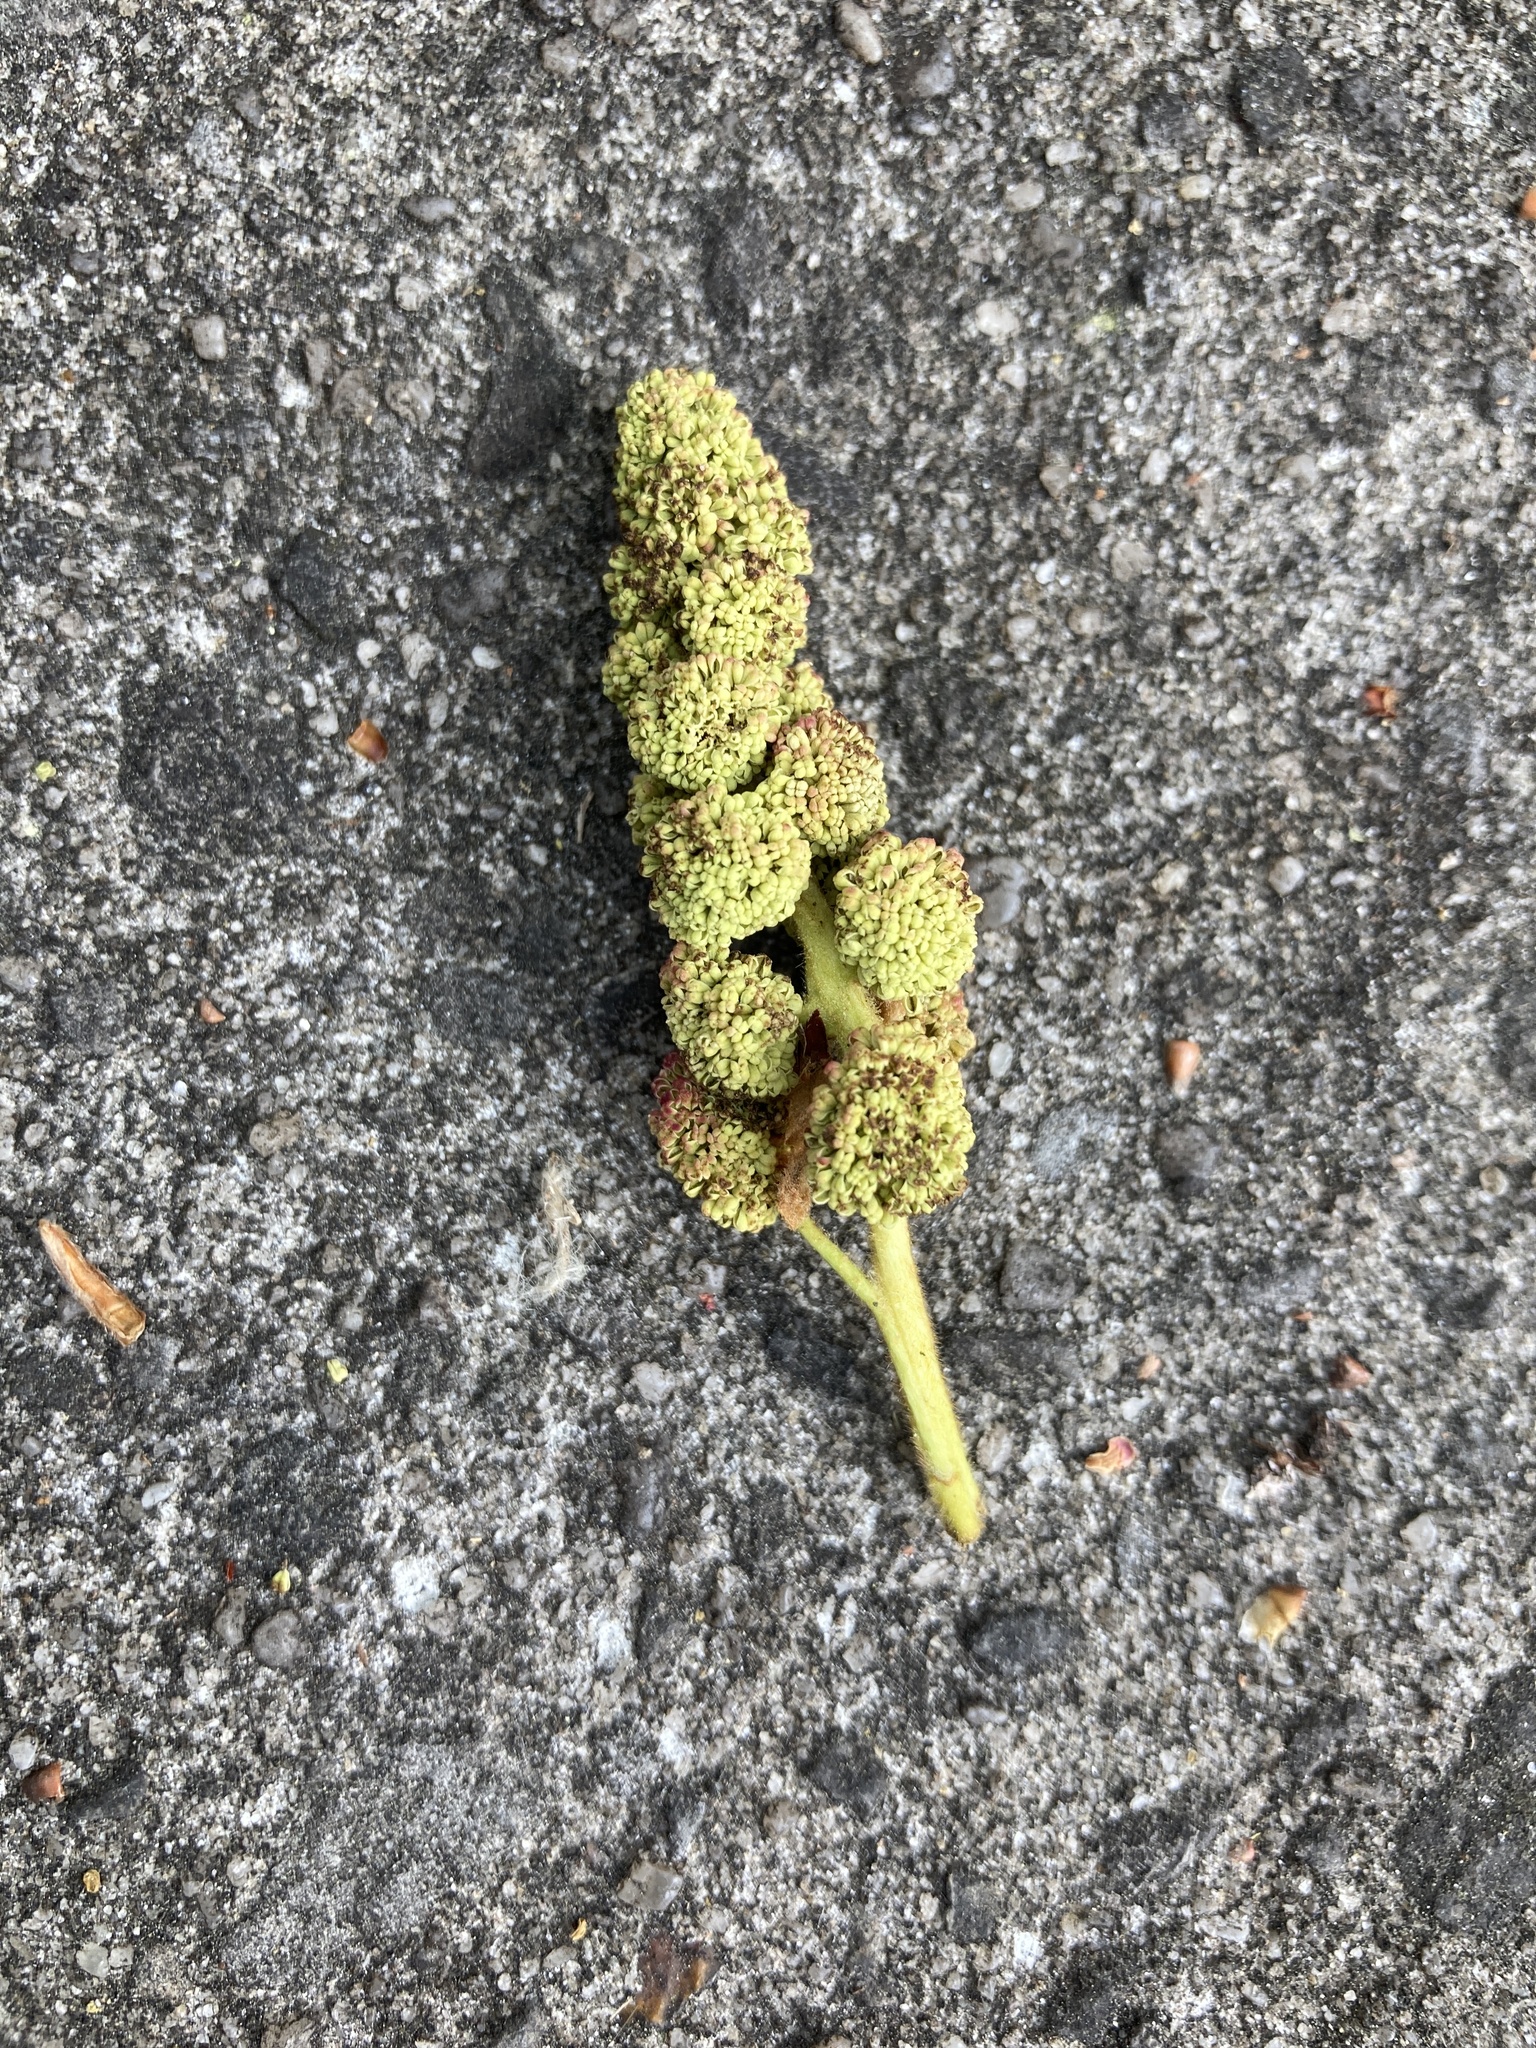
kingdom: Plantae
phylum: Tracheophyta
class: Magnoliopsida
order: Saxifragales
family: Altingiaceae
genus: Liquidambar
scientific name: Liquidambar styraciflua
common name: Sweet gum
